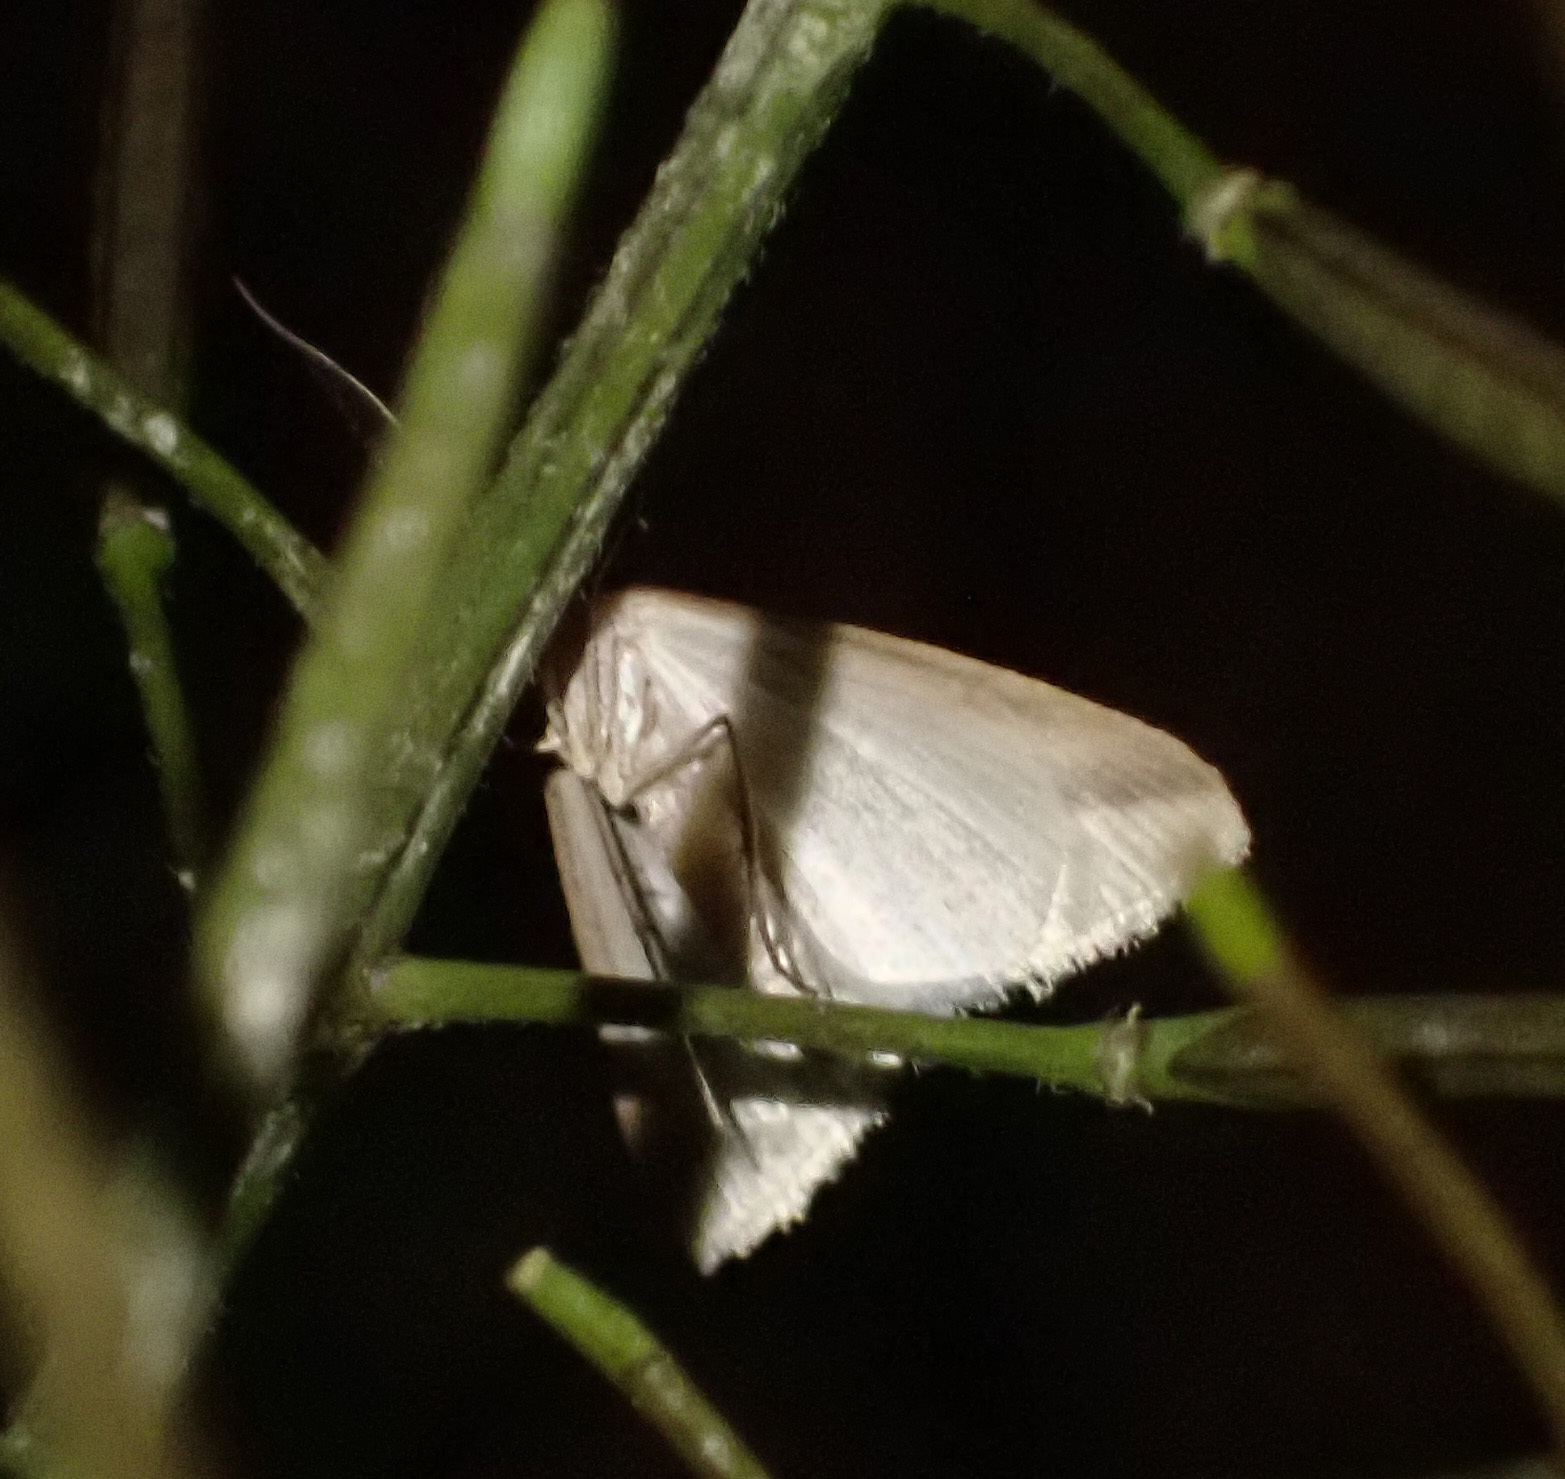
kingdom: Animalia
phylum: Arthropoda
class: Insecta
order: Lepidoptera
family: Geometridae
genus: Rhodometra
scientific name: Rhodometra sacraria
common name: Vestal
